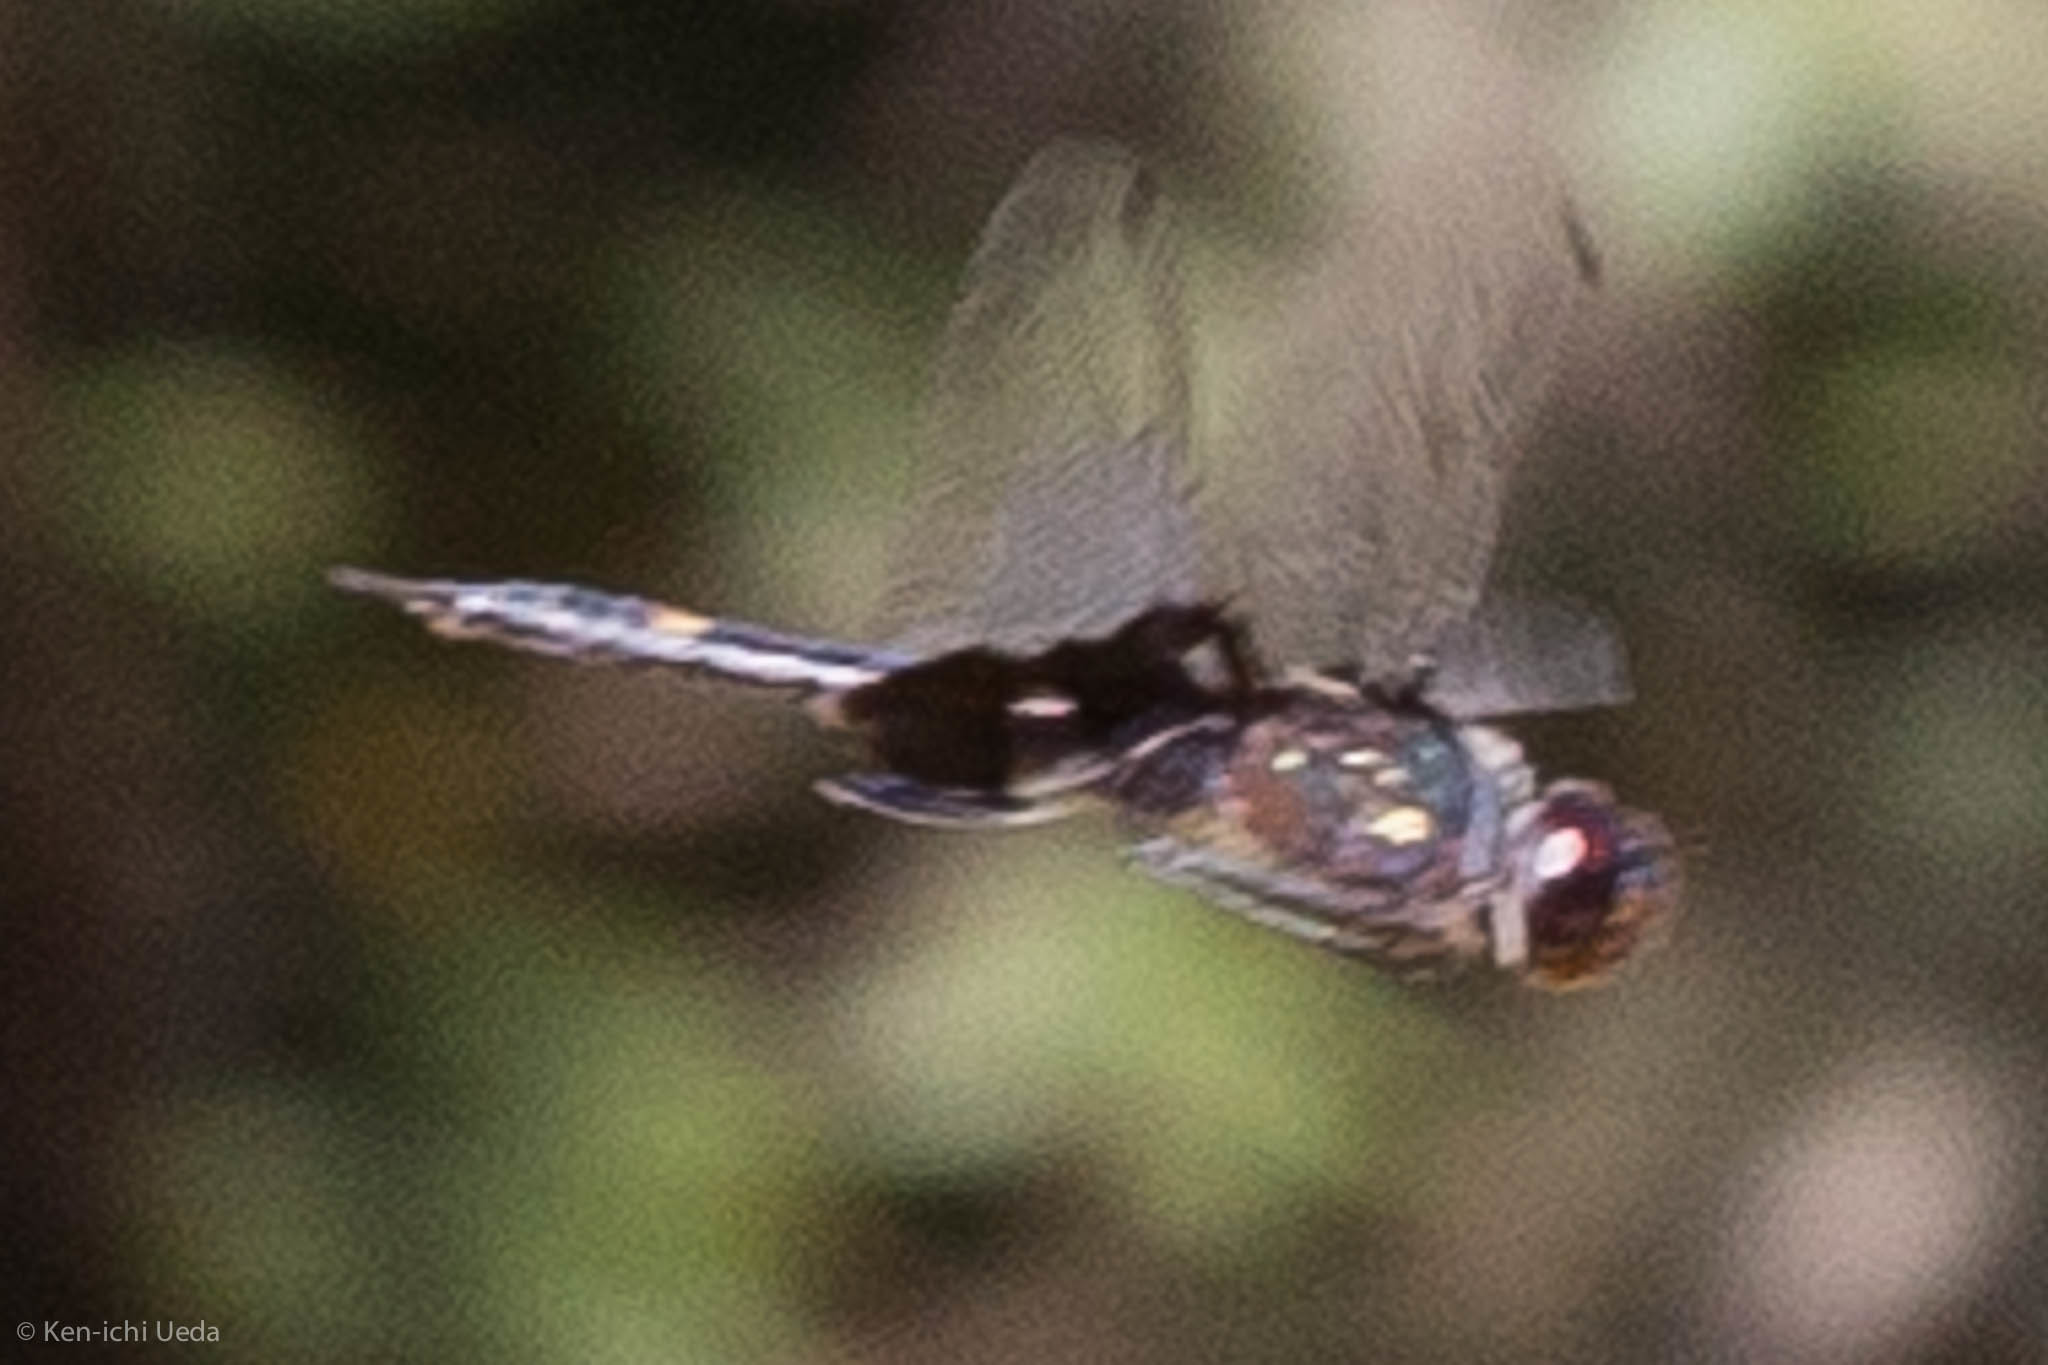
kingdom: Animalia
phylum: Arthropoda
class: Insecta
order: Odonata
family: Libellulidae
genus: Tramea
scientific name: Tramea lacerata
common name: Black saddlebags
